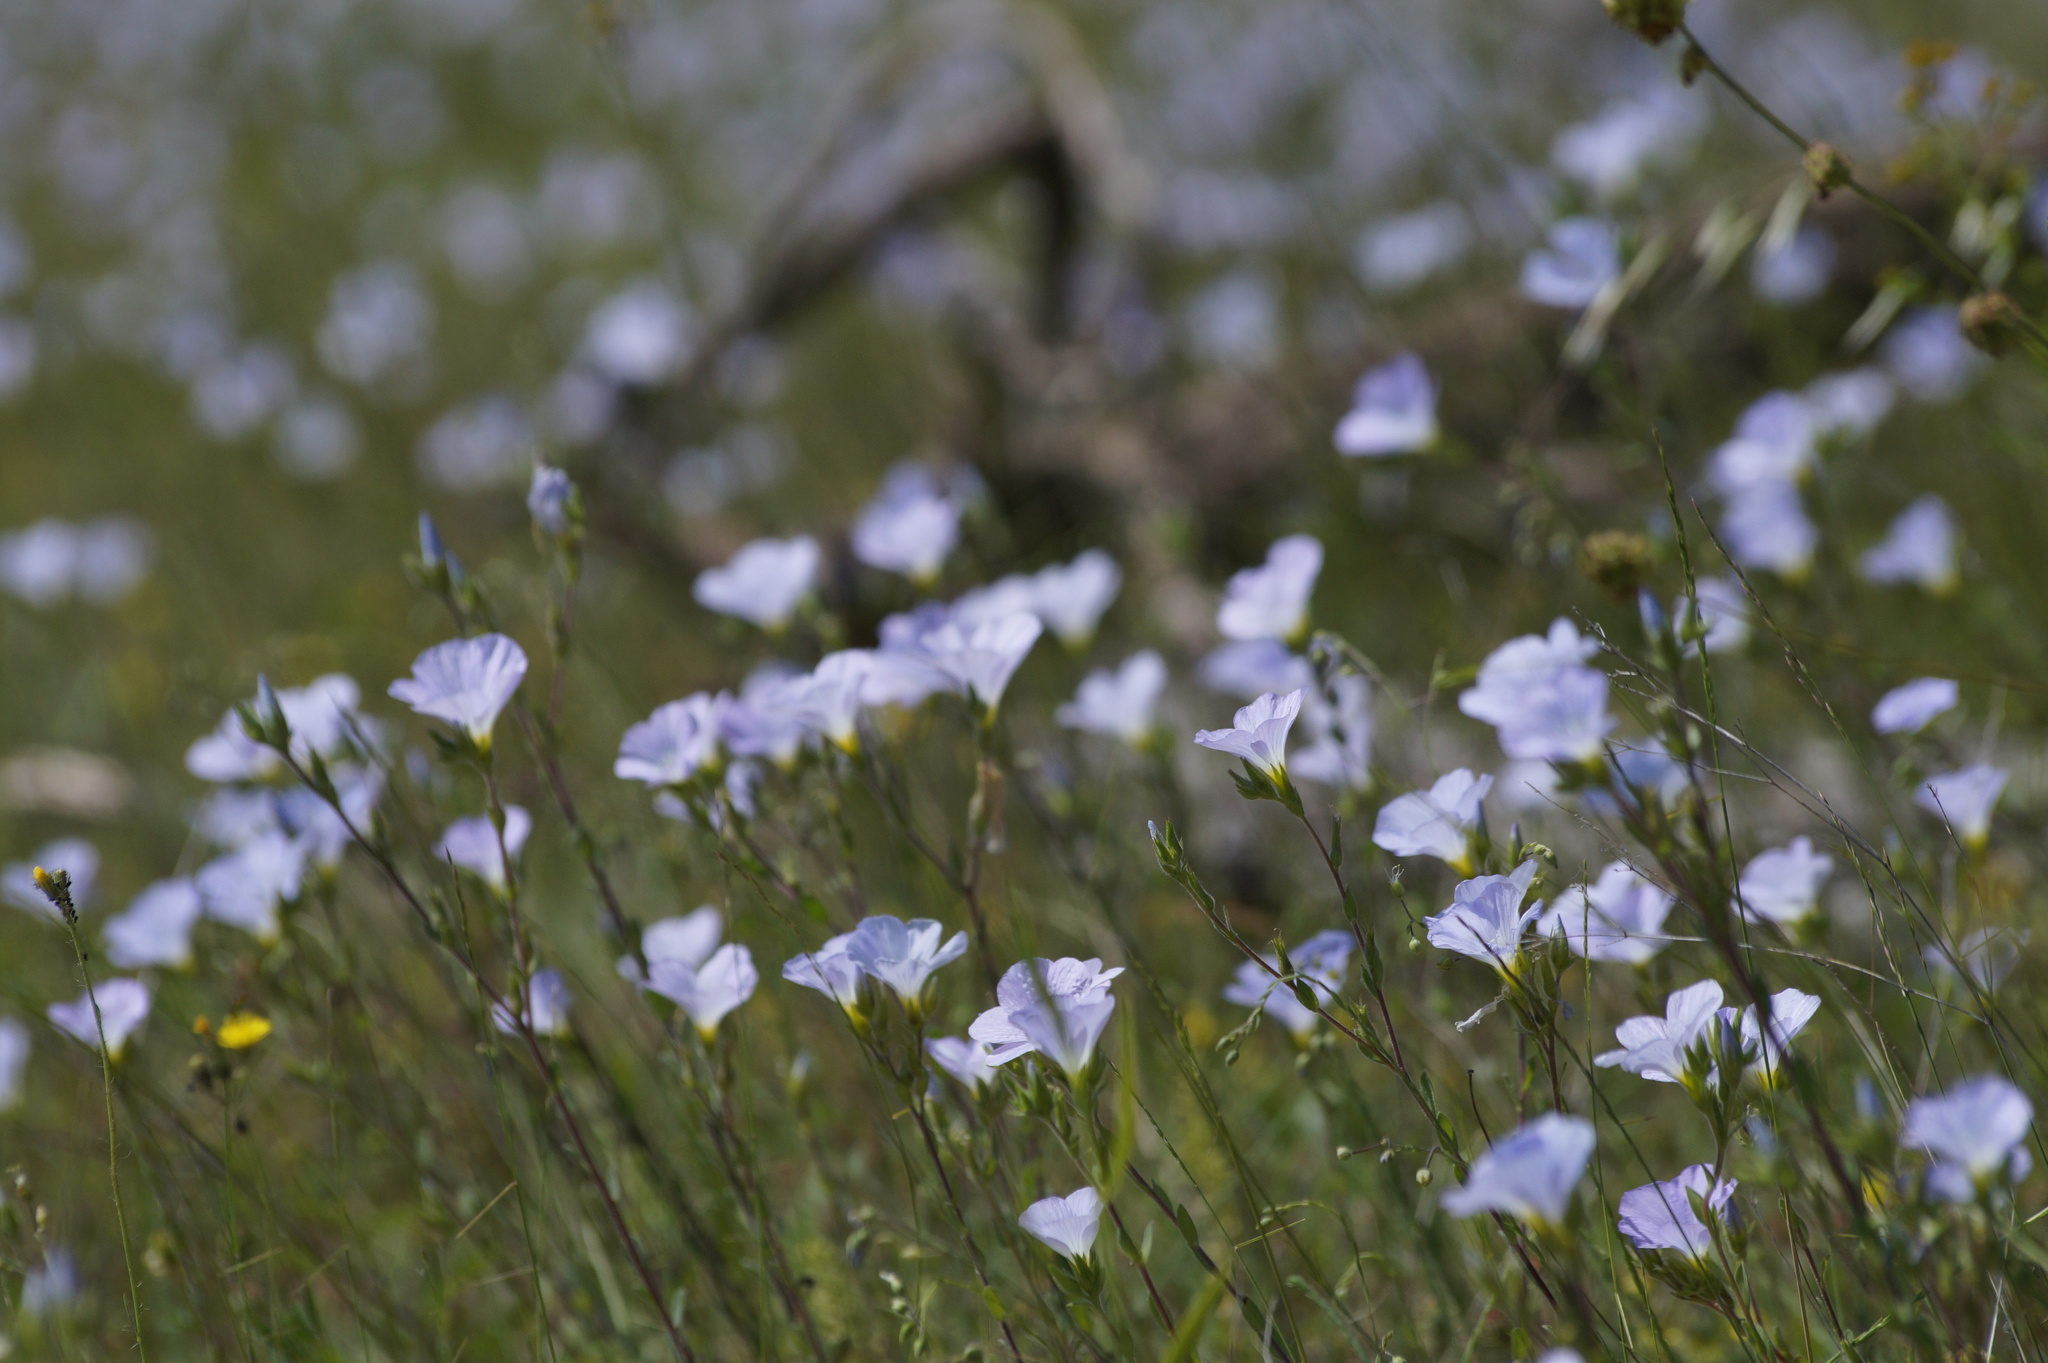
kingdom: Plantae
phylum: Tracheophyta
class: Magnoliopsida
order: Malpighiales
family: Linaceae
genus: Linum
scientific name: Linum hirsutum
